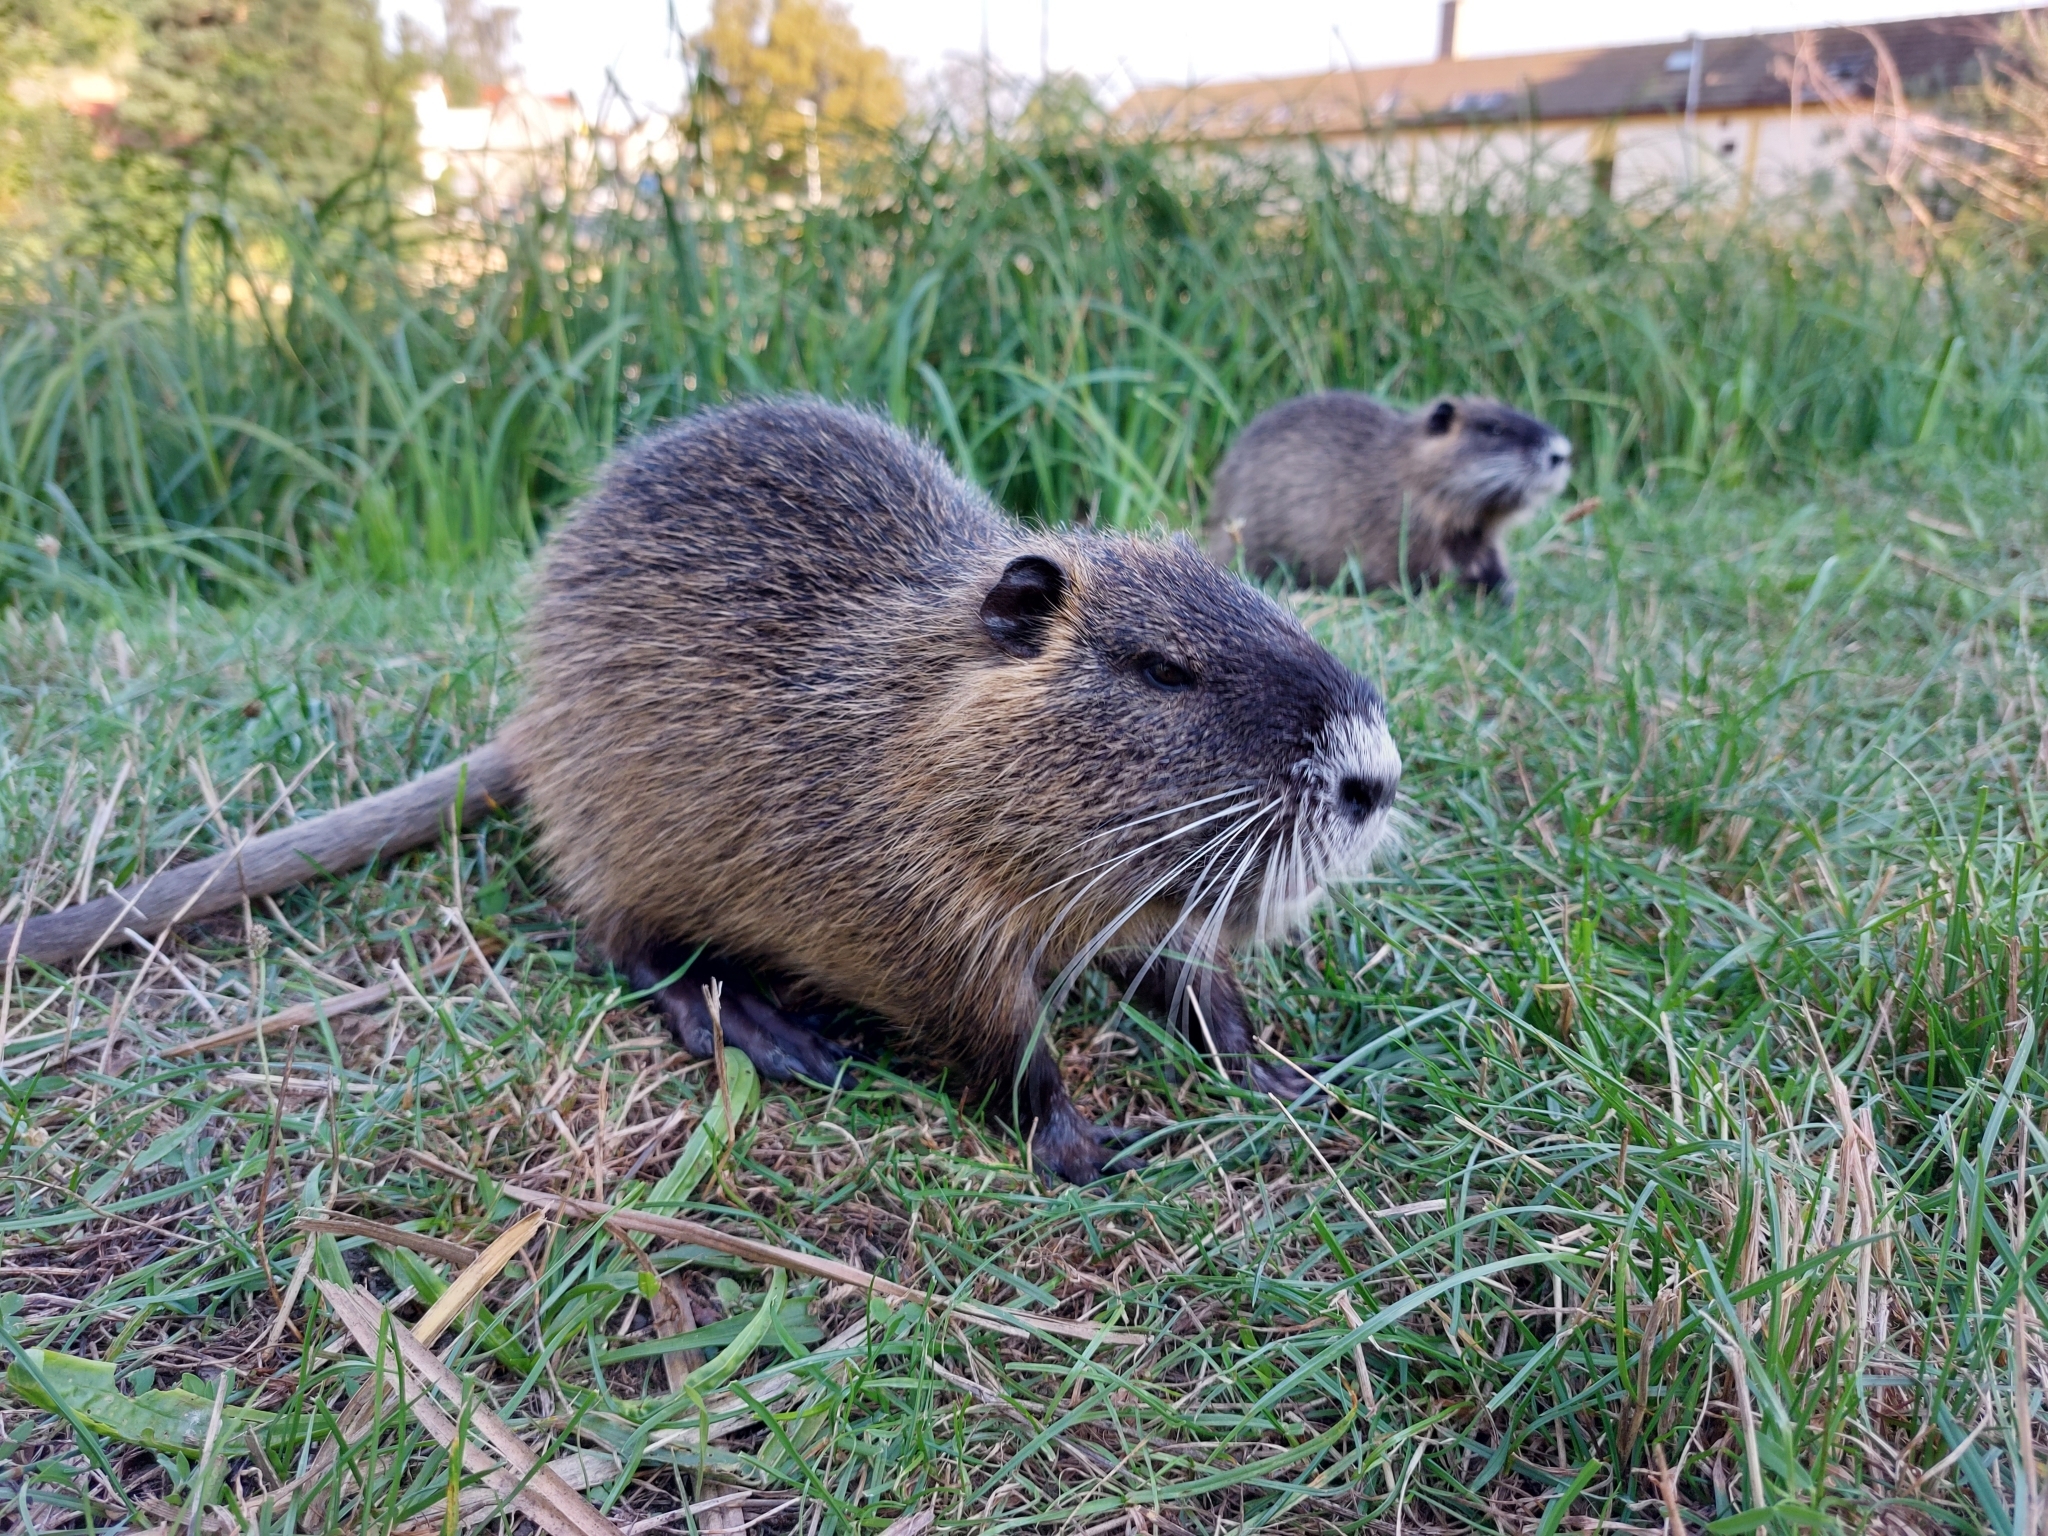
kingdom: Animalia
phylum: Chordata
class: Mammalia
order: Rodentia
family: Myocastoridae
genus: Myocastor
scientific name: Myocastor coypus
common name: Coypu
